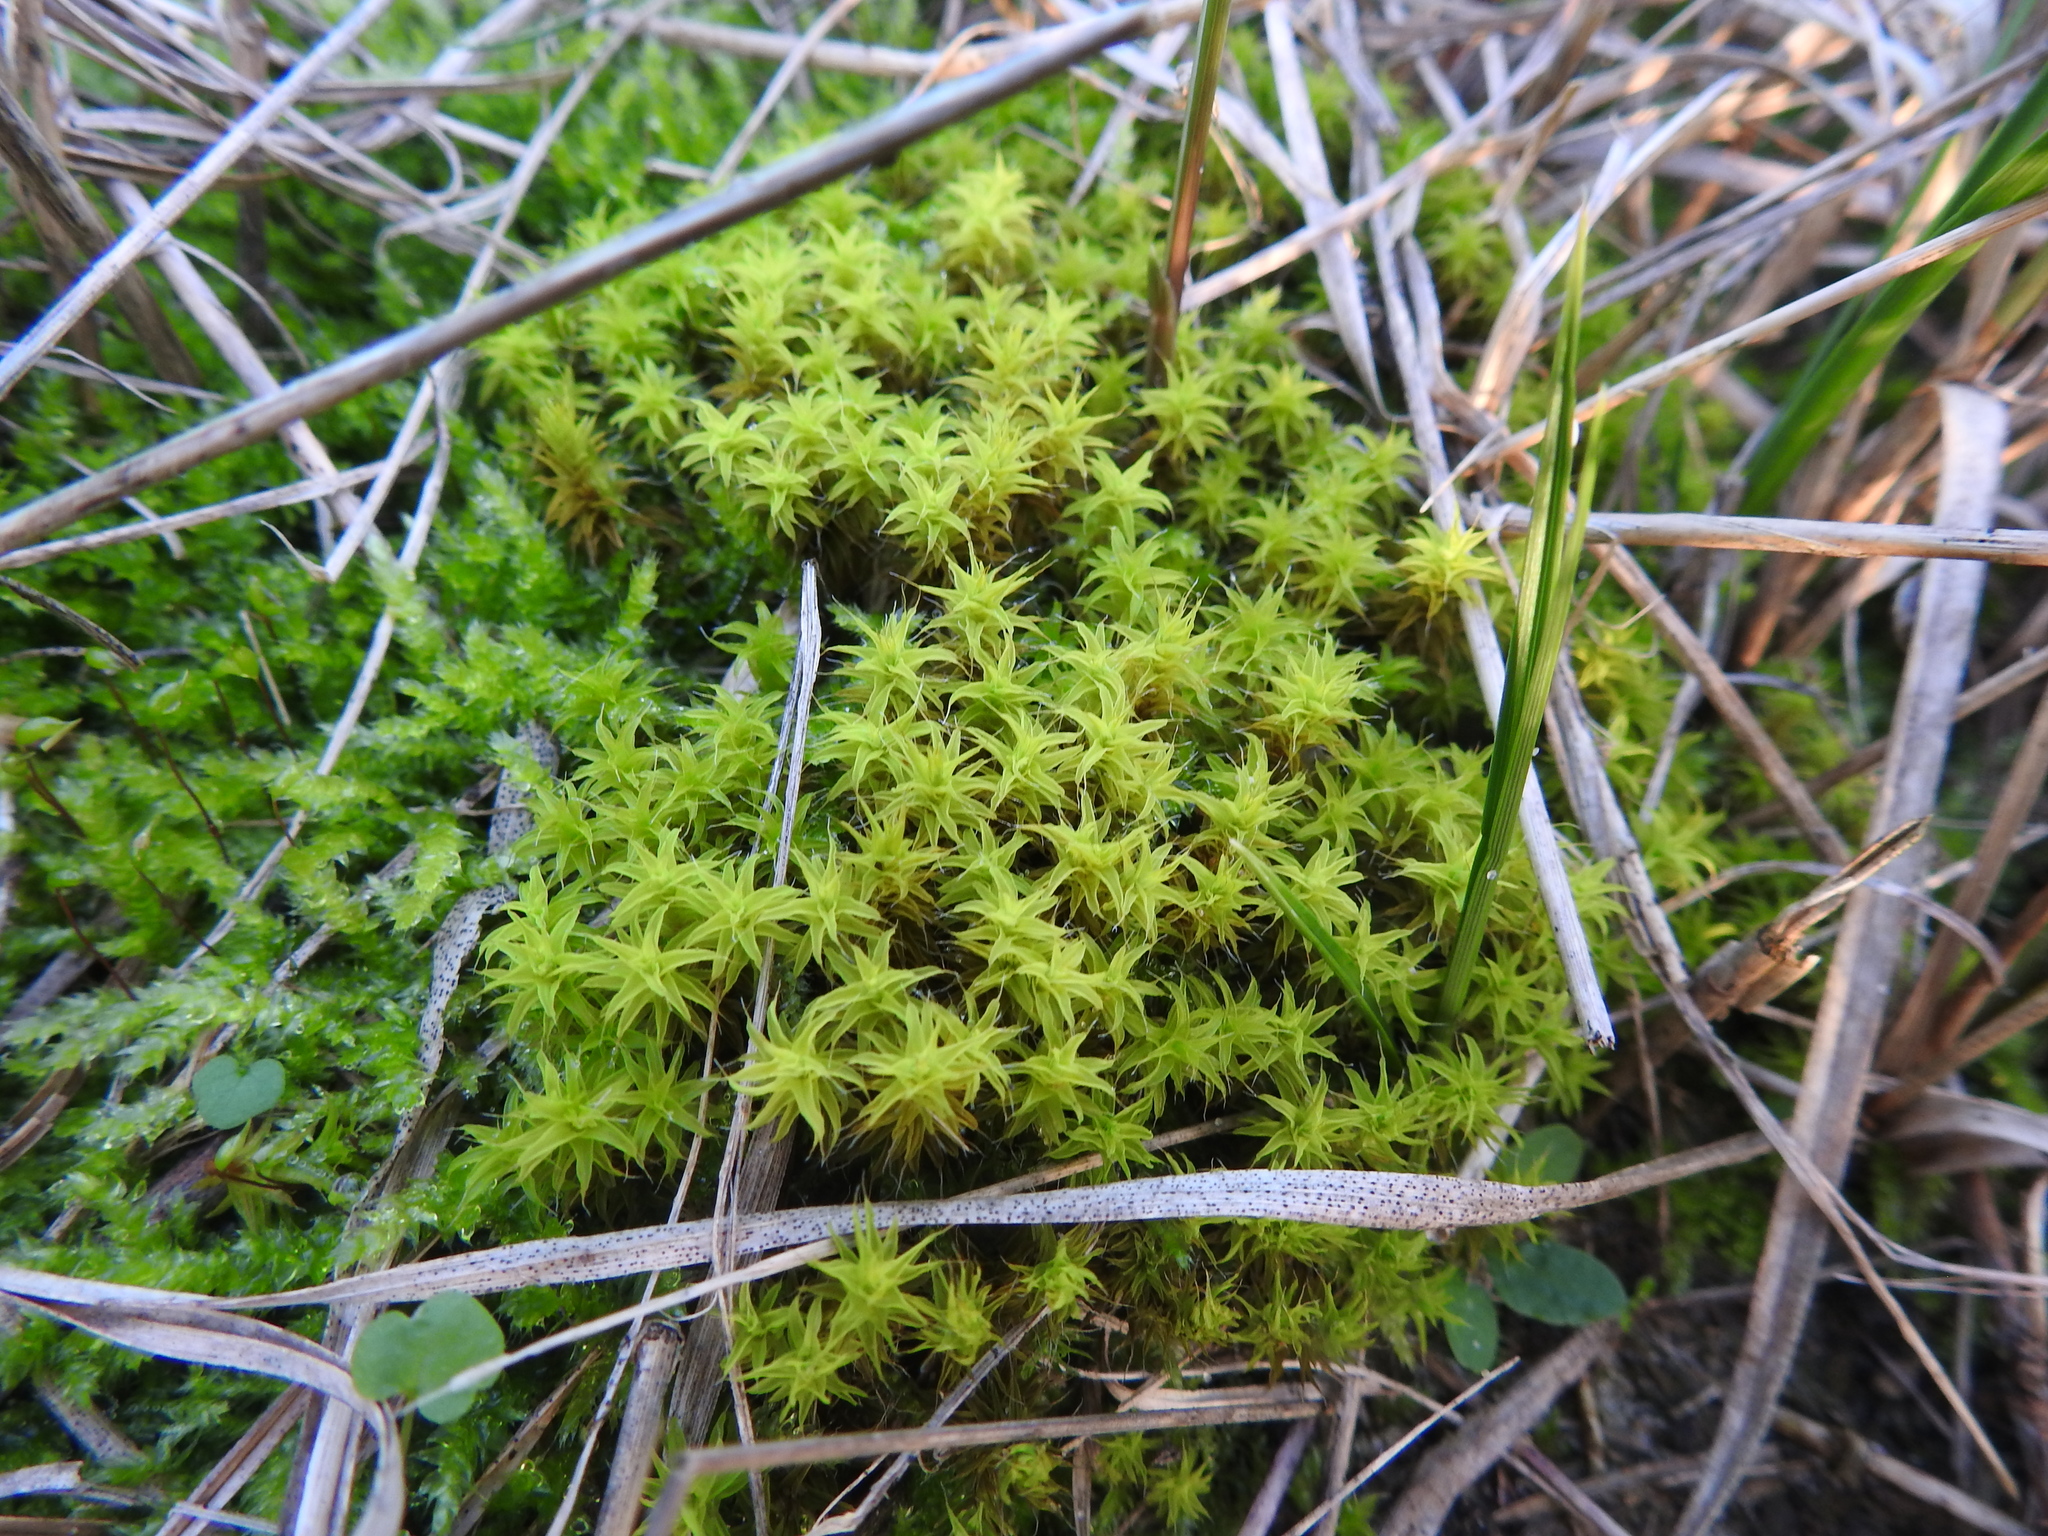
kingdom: Plantae
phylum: Bryophyta
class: Bryopsida
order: Pottiales
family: Pottiaceae
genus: Syntrichia
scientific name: Syntrichia ruralis
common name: Sidewalk screw moss
